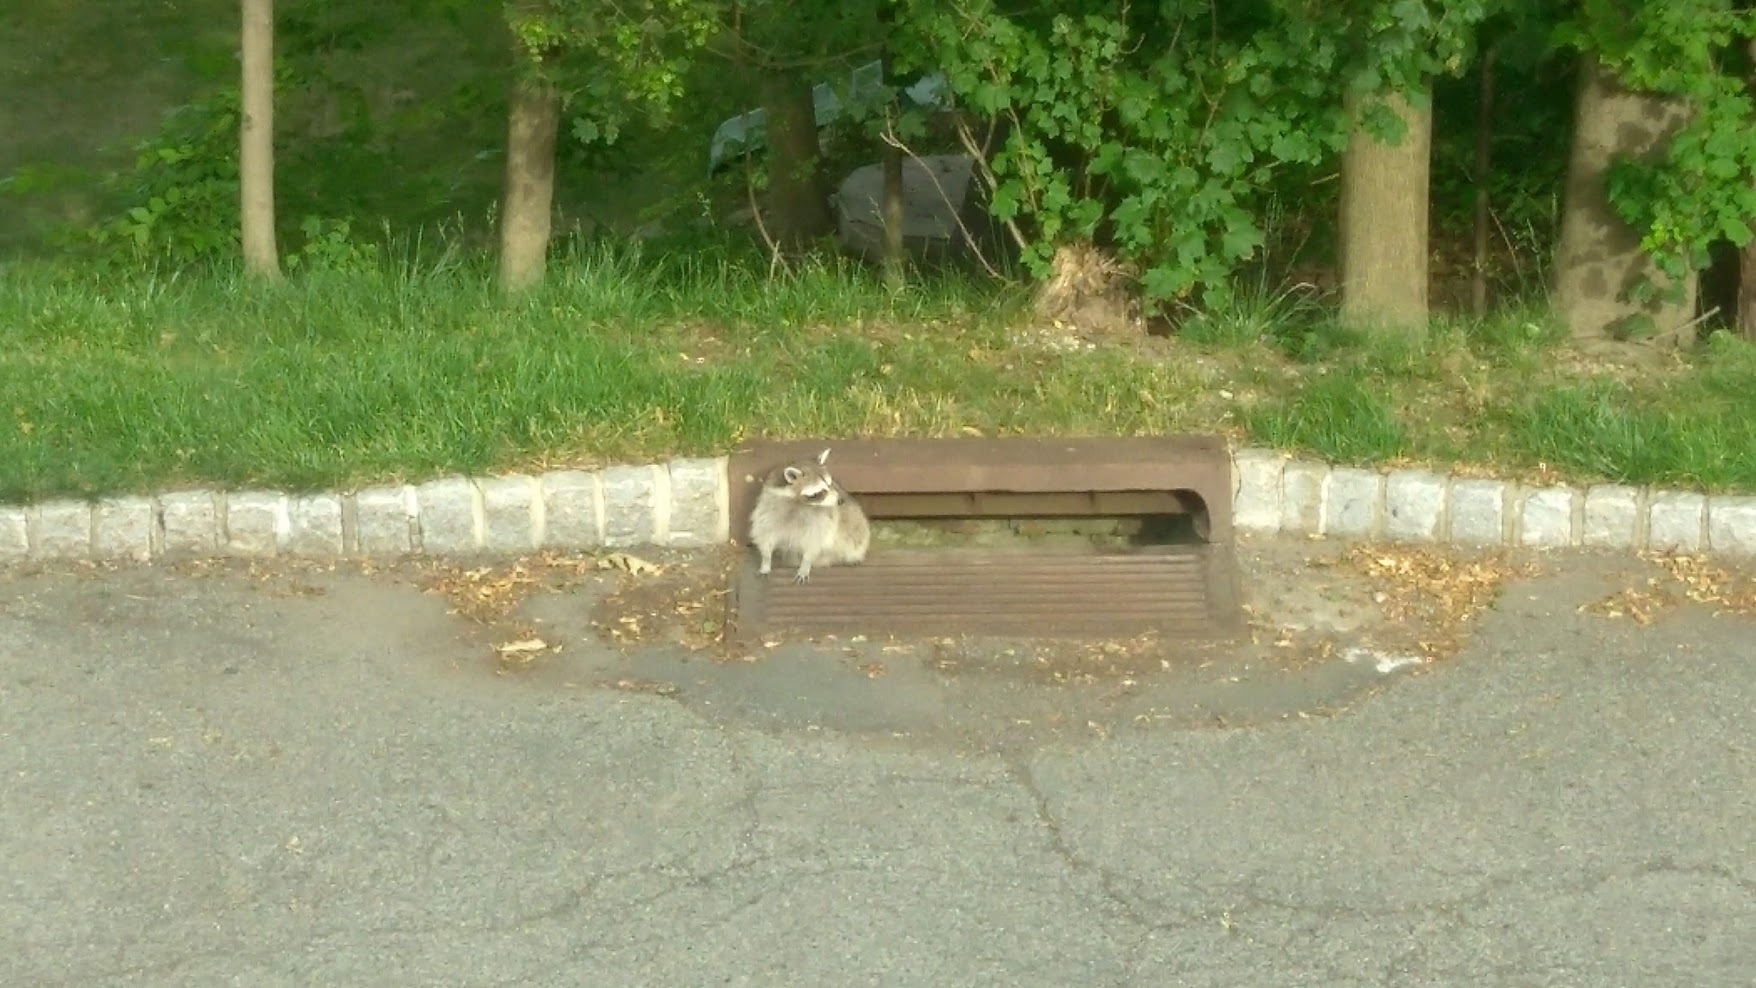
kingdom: Animalia
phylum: Chordata
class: Mammalia
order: Carnivora
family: Procyonidae
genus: Procyon
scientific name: Procyon lotor
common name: Raccoon
